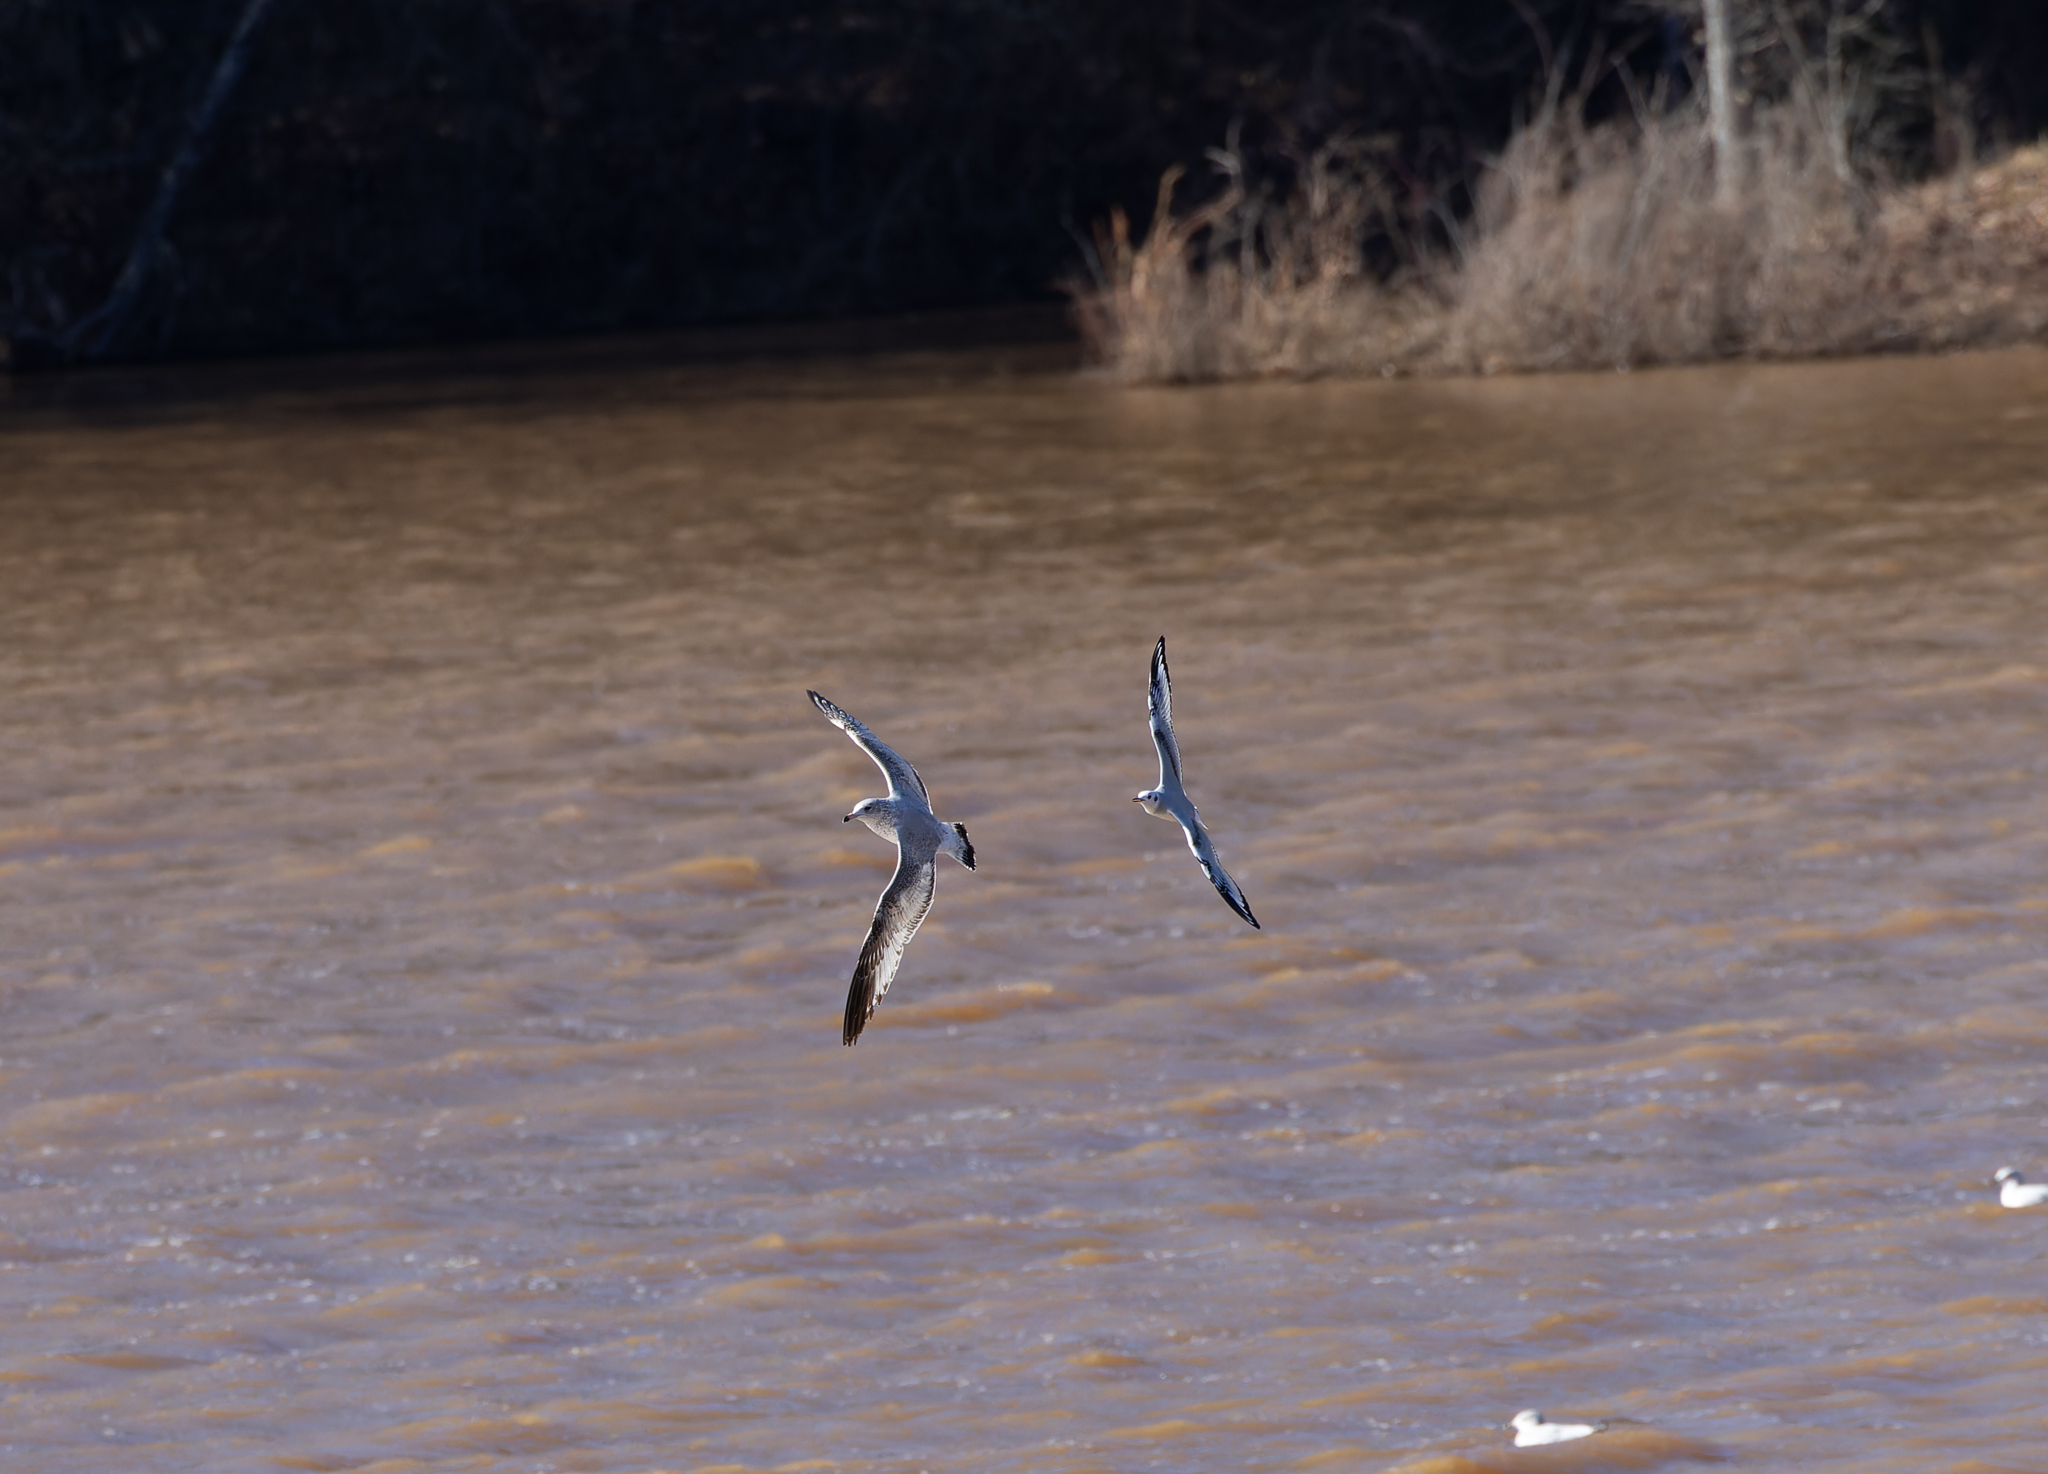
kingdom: Animalia
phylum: Chordata
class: Aves
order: Charadriiformes
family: Laridae
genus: Larus
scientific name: Larus delawarensis
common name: Ring-billed gull
